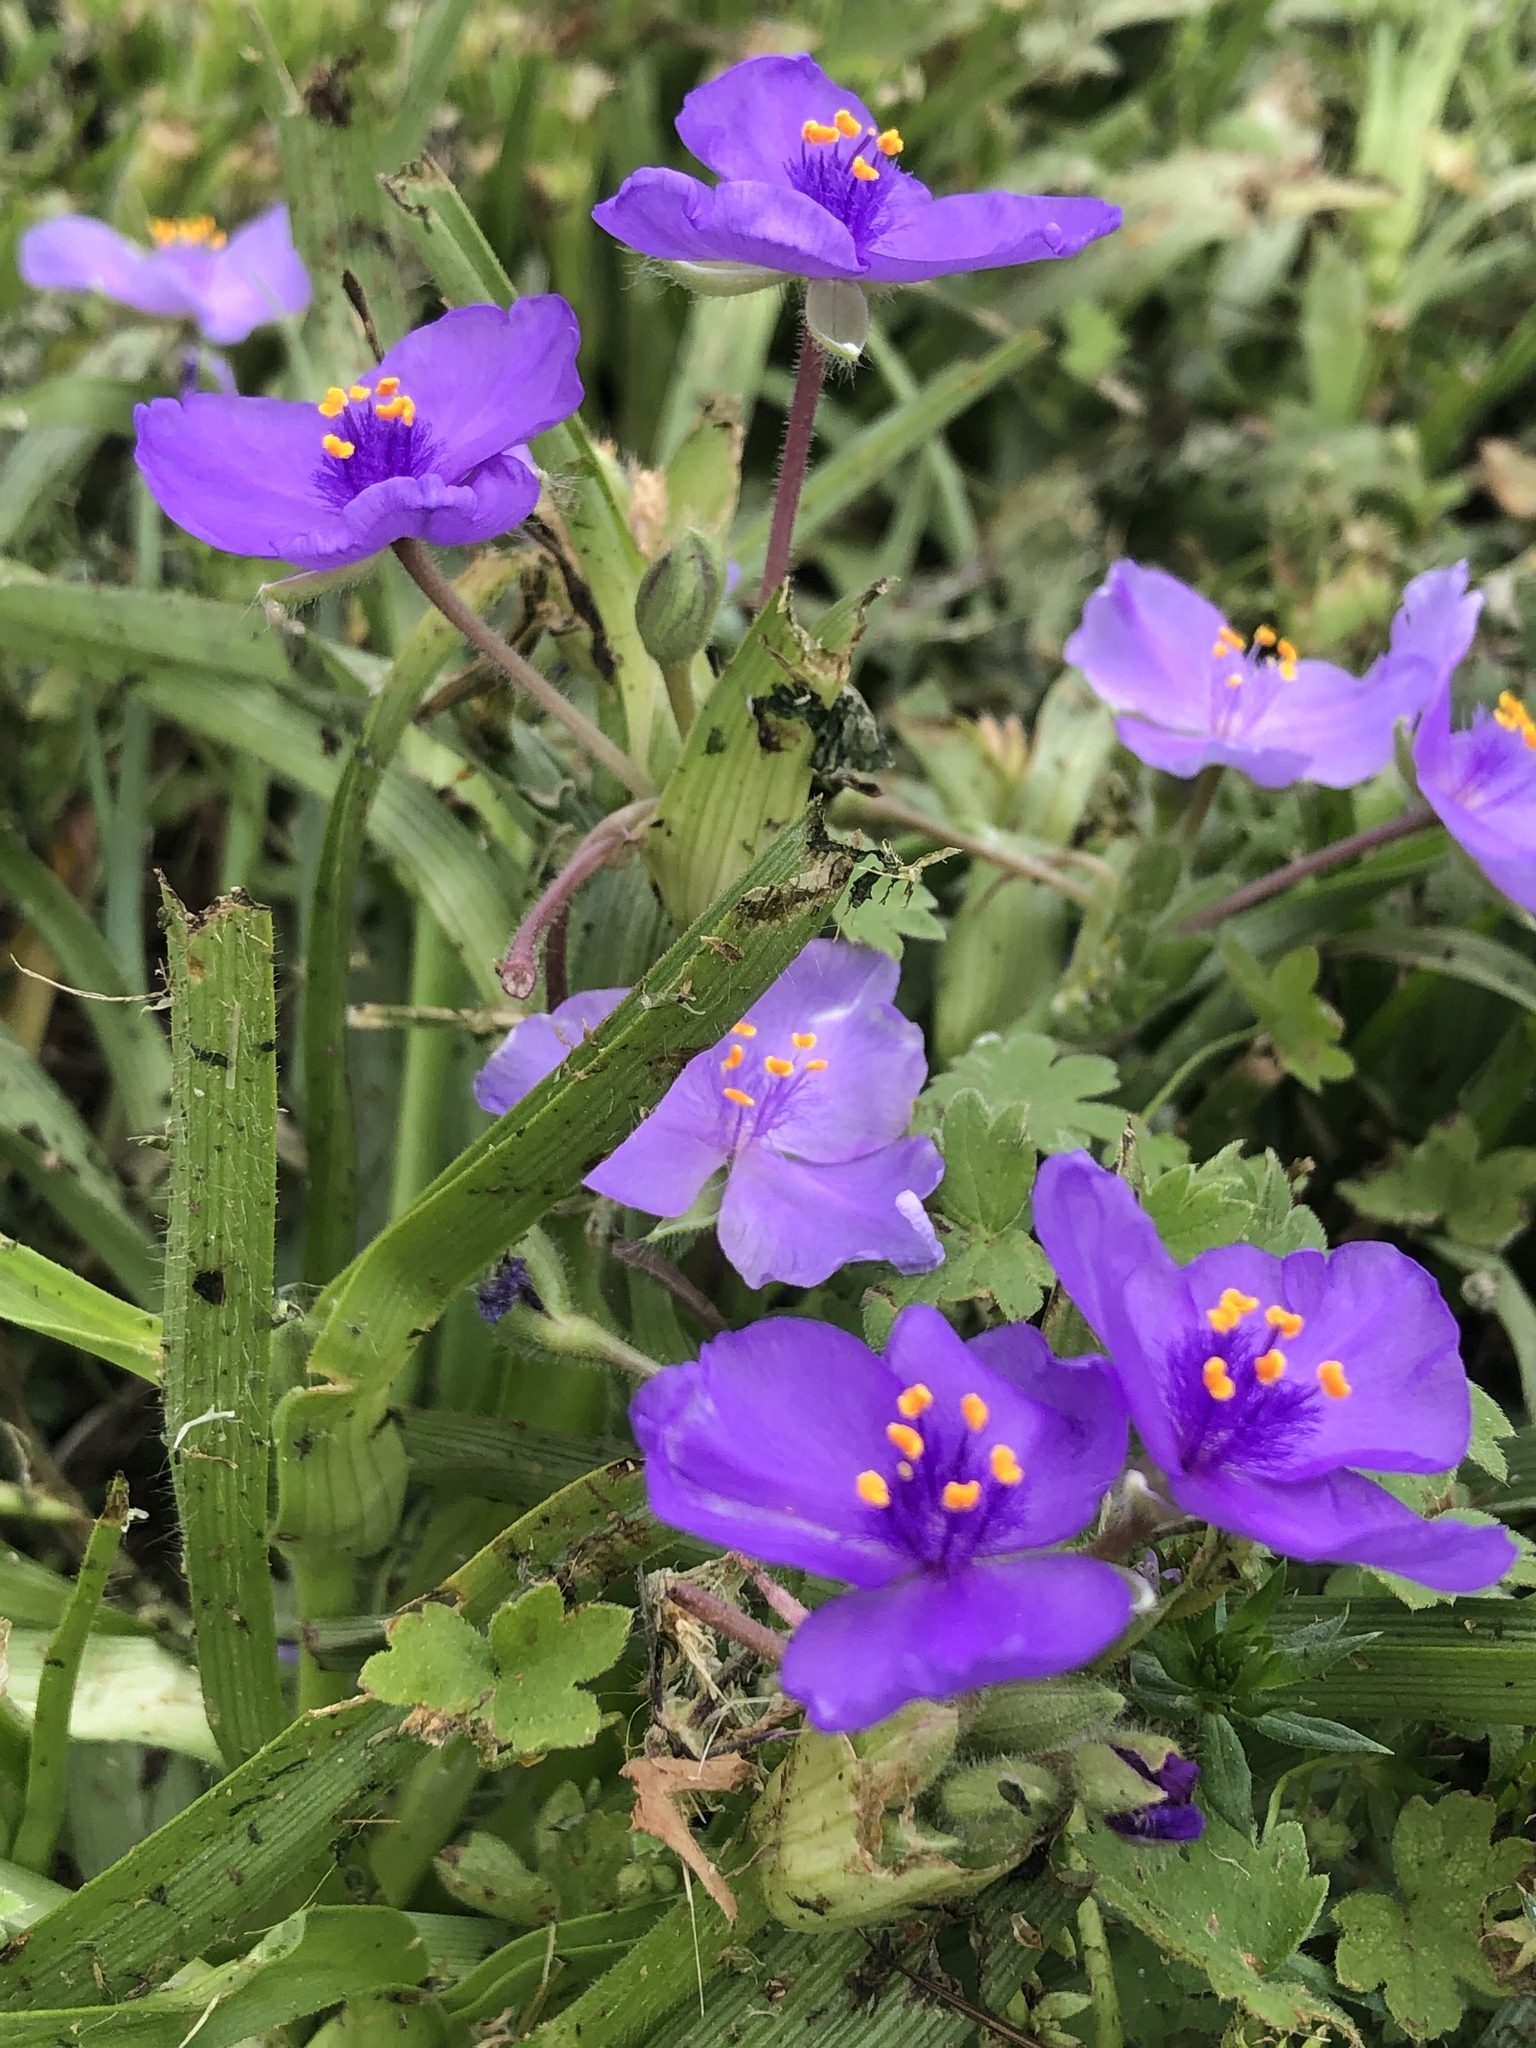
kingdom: Plantae
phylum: Tracheophyta
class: Liliopsida
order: Commelinales
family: Commelinaceae
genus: Tradescantia
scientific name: Tradescantia humilis
